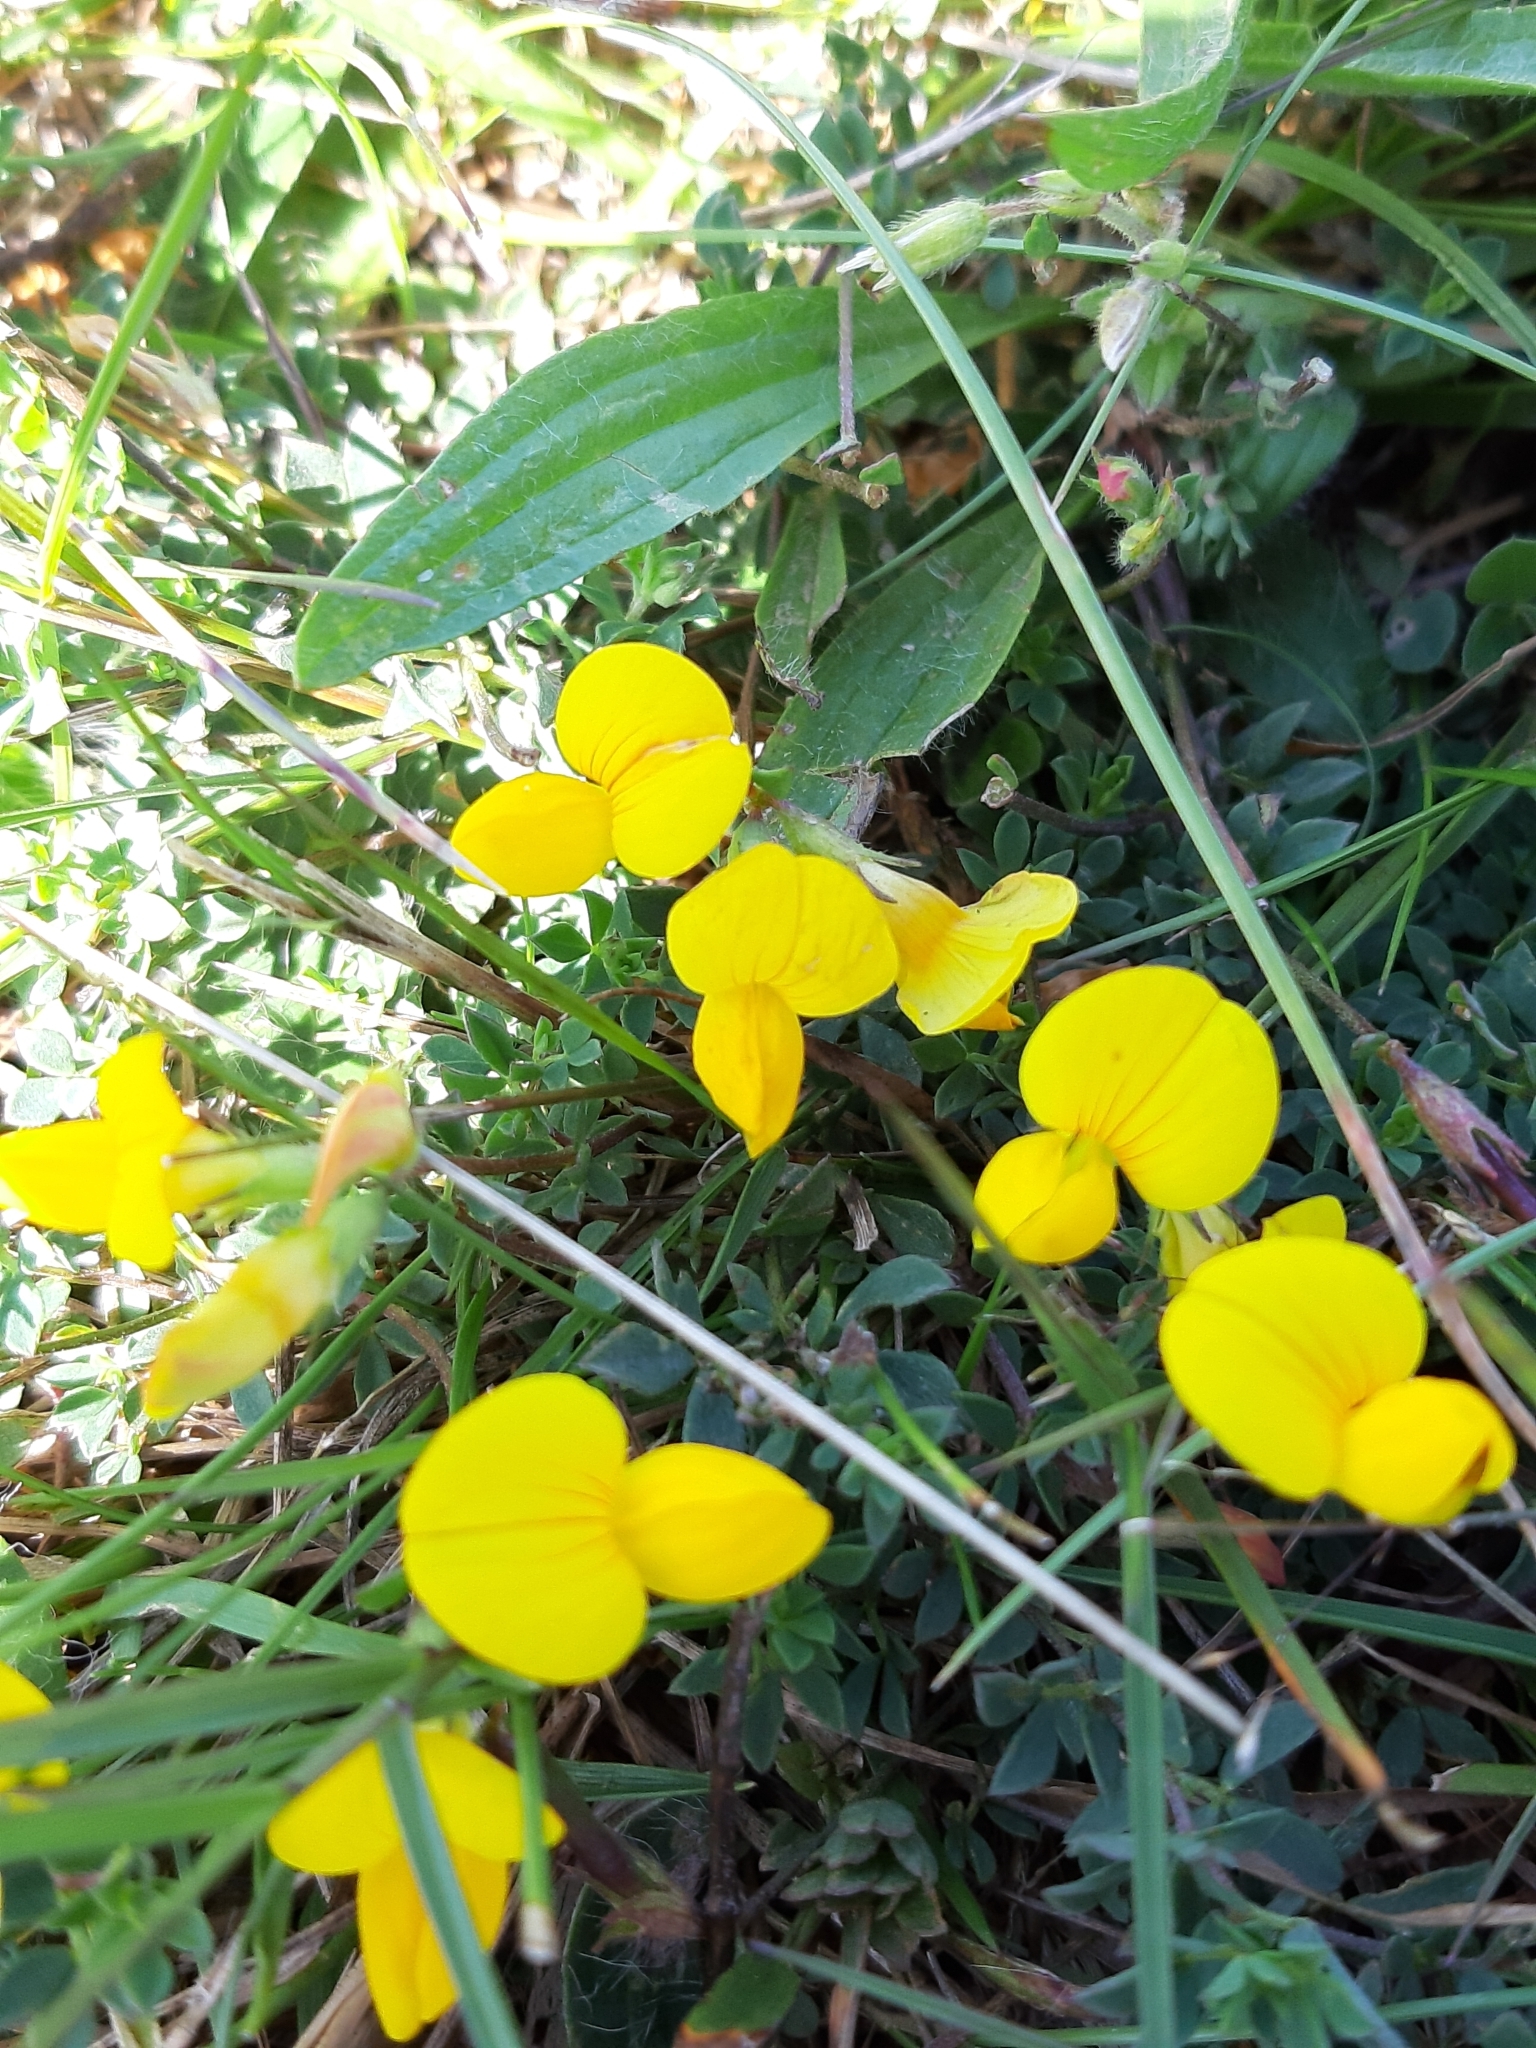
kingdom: Plantae
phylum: Tracheophyta
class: Magnoliopsida
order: Fabales
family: Fabaceae
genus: Lotus
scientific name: Lotus corniculatus
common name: Common bird's-foot-trefoil
